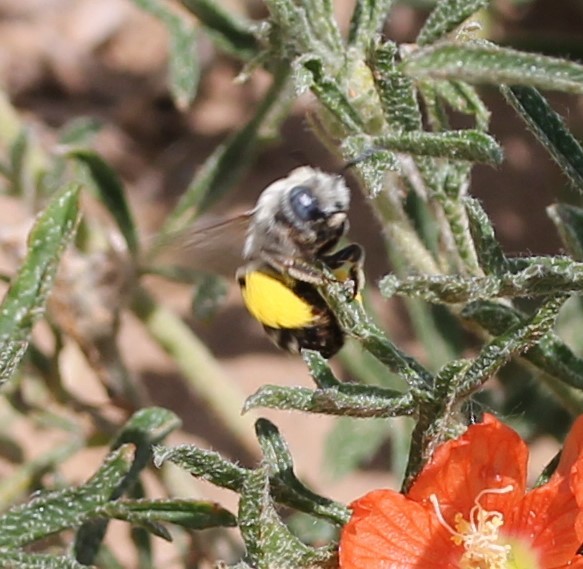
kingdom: Animalia
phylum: Arthropoda
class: Insecta
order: Hymenoptera
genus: Eumelissodes
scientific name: Eumelissodes
